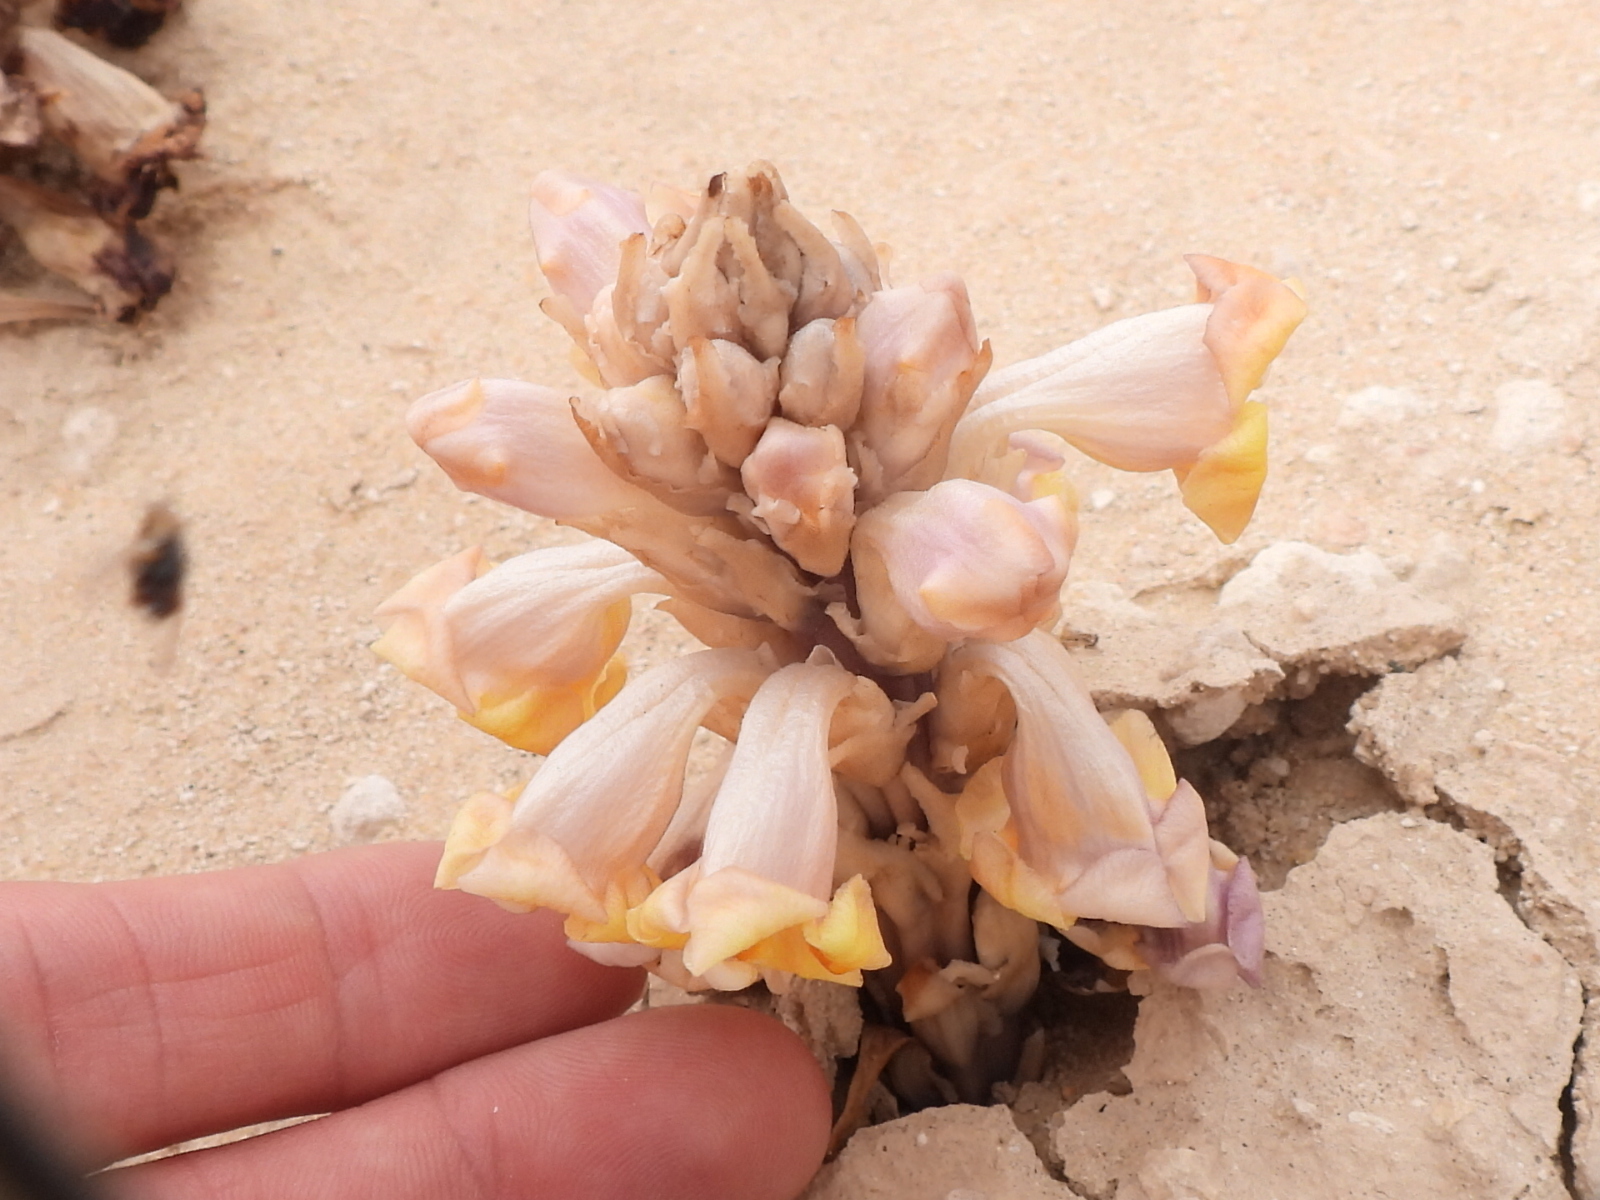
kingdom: Plantae
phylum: Tracheophyta
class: Magnoliopsida
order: Lamiales
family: Orobanchaceae
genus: Cistanche
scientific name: Cistanche tubulosa
